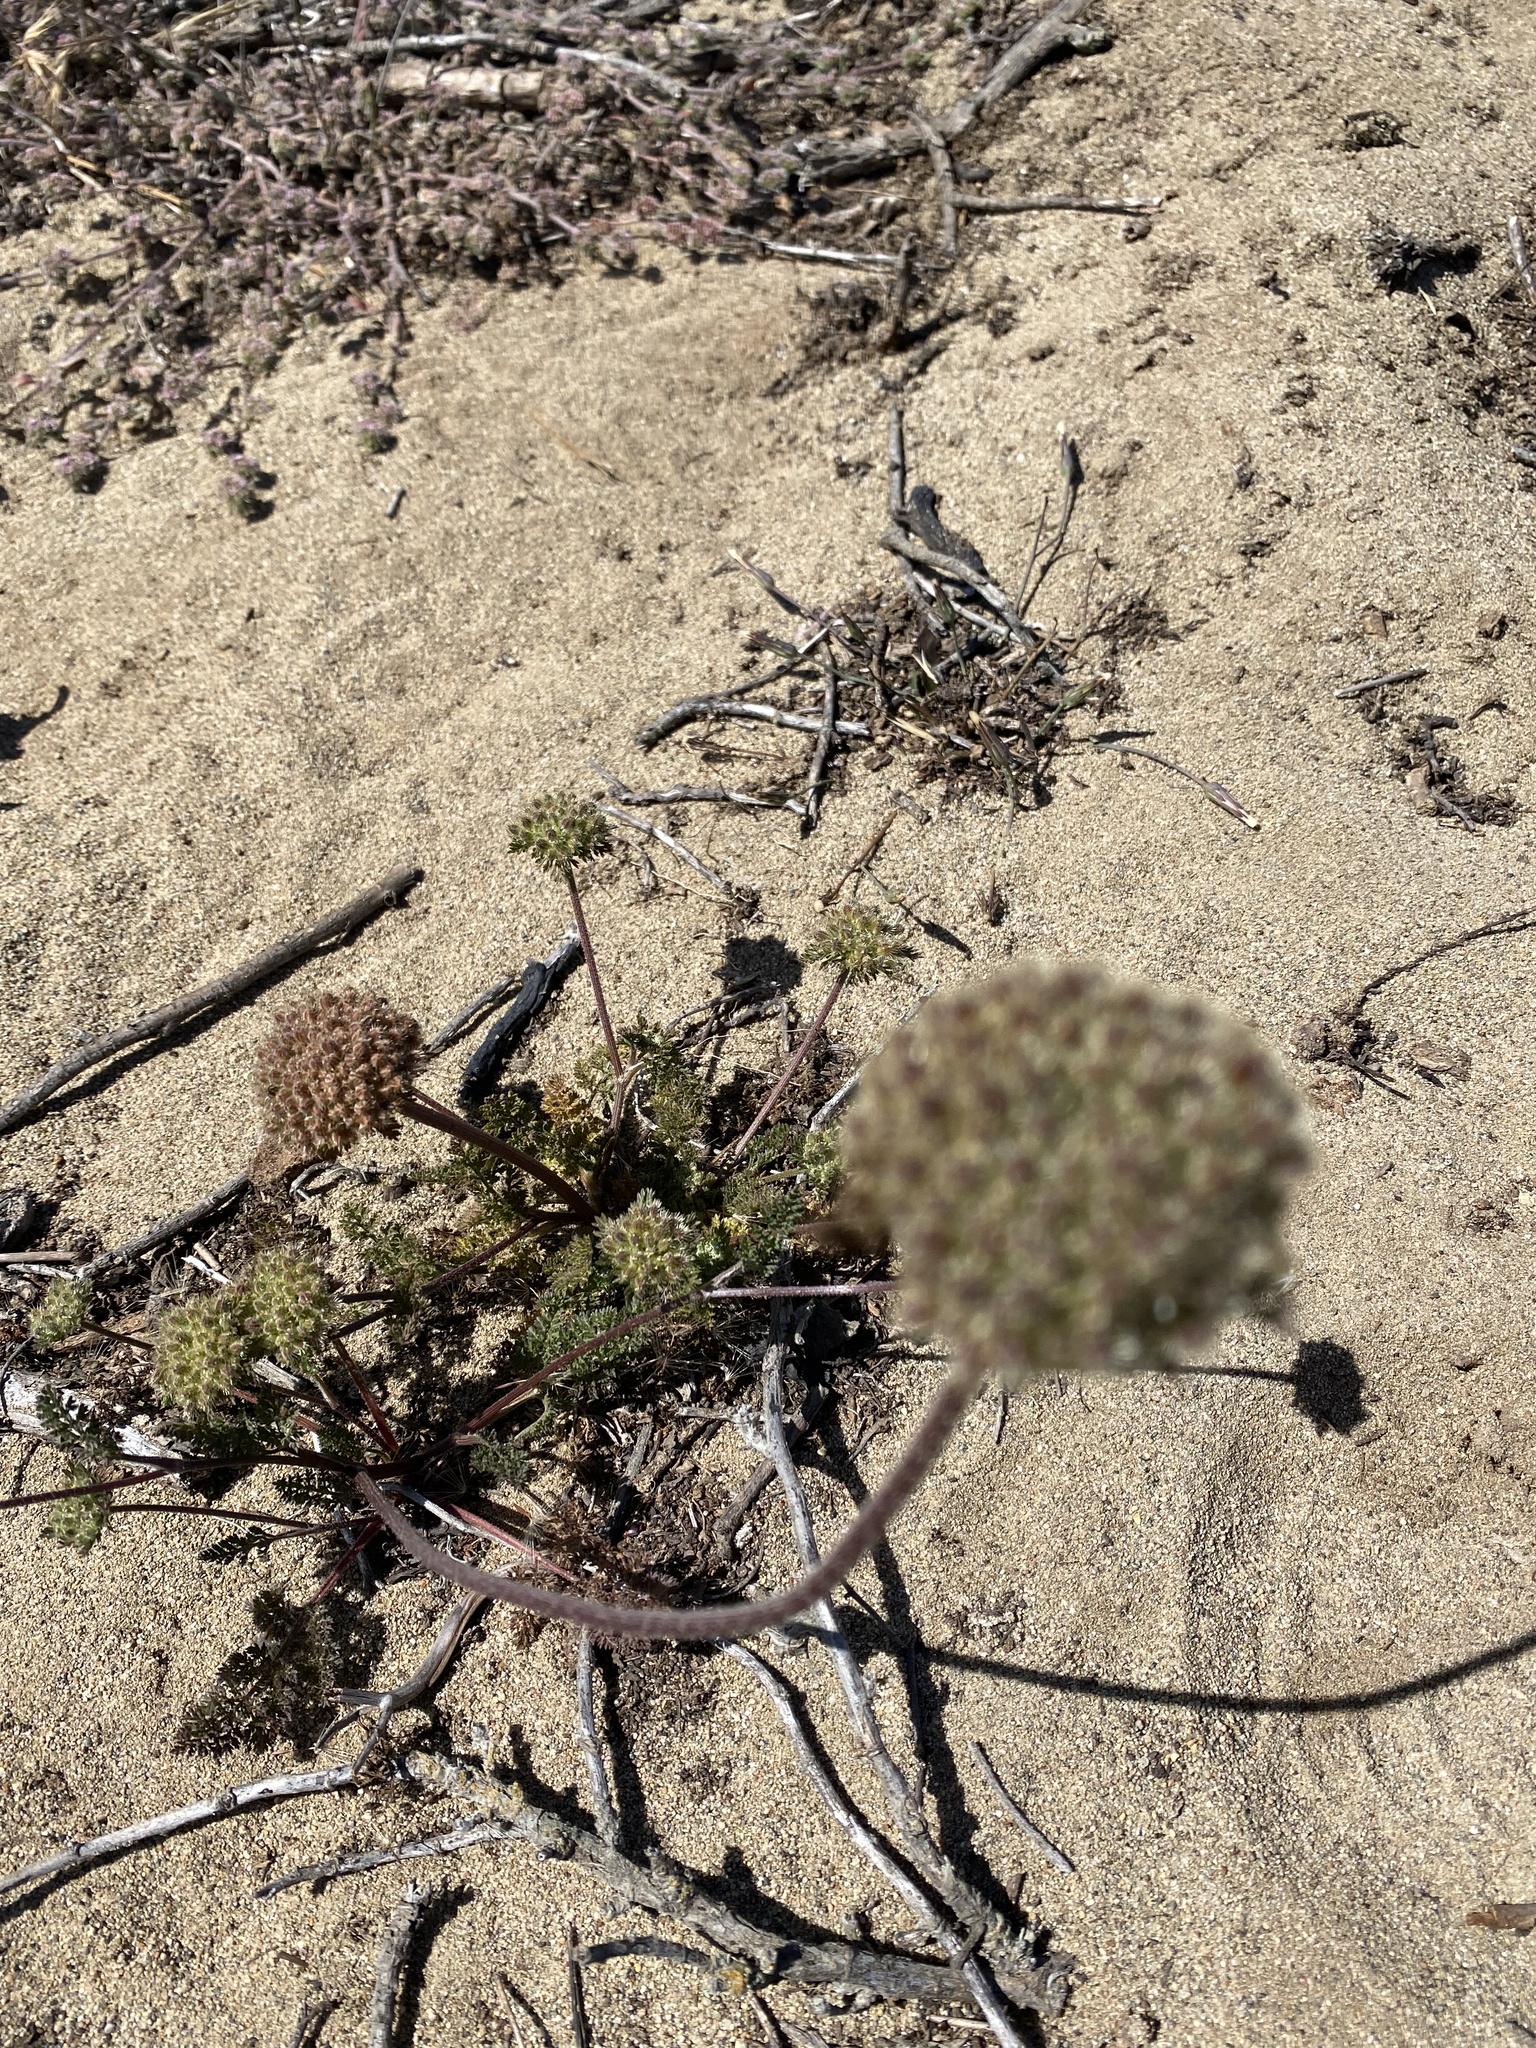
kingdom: Plantae
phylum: Tracheophyta
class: Magnoliopsida
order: Apiales
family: Apiaceae
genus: Daucus
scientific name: Daucus pusillus
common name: Southwest wild carrot
